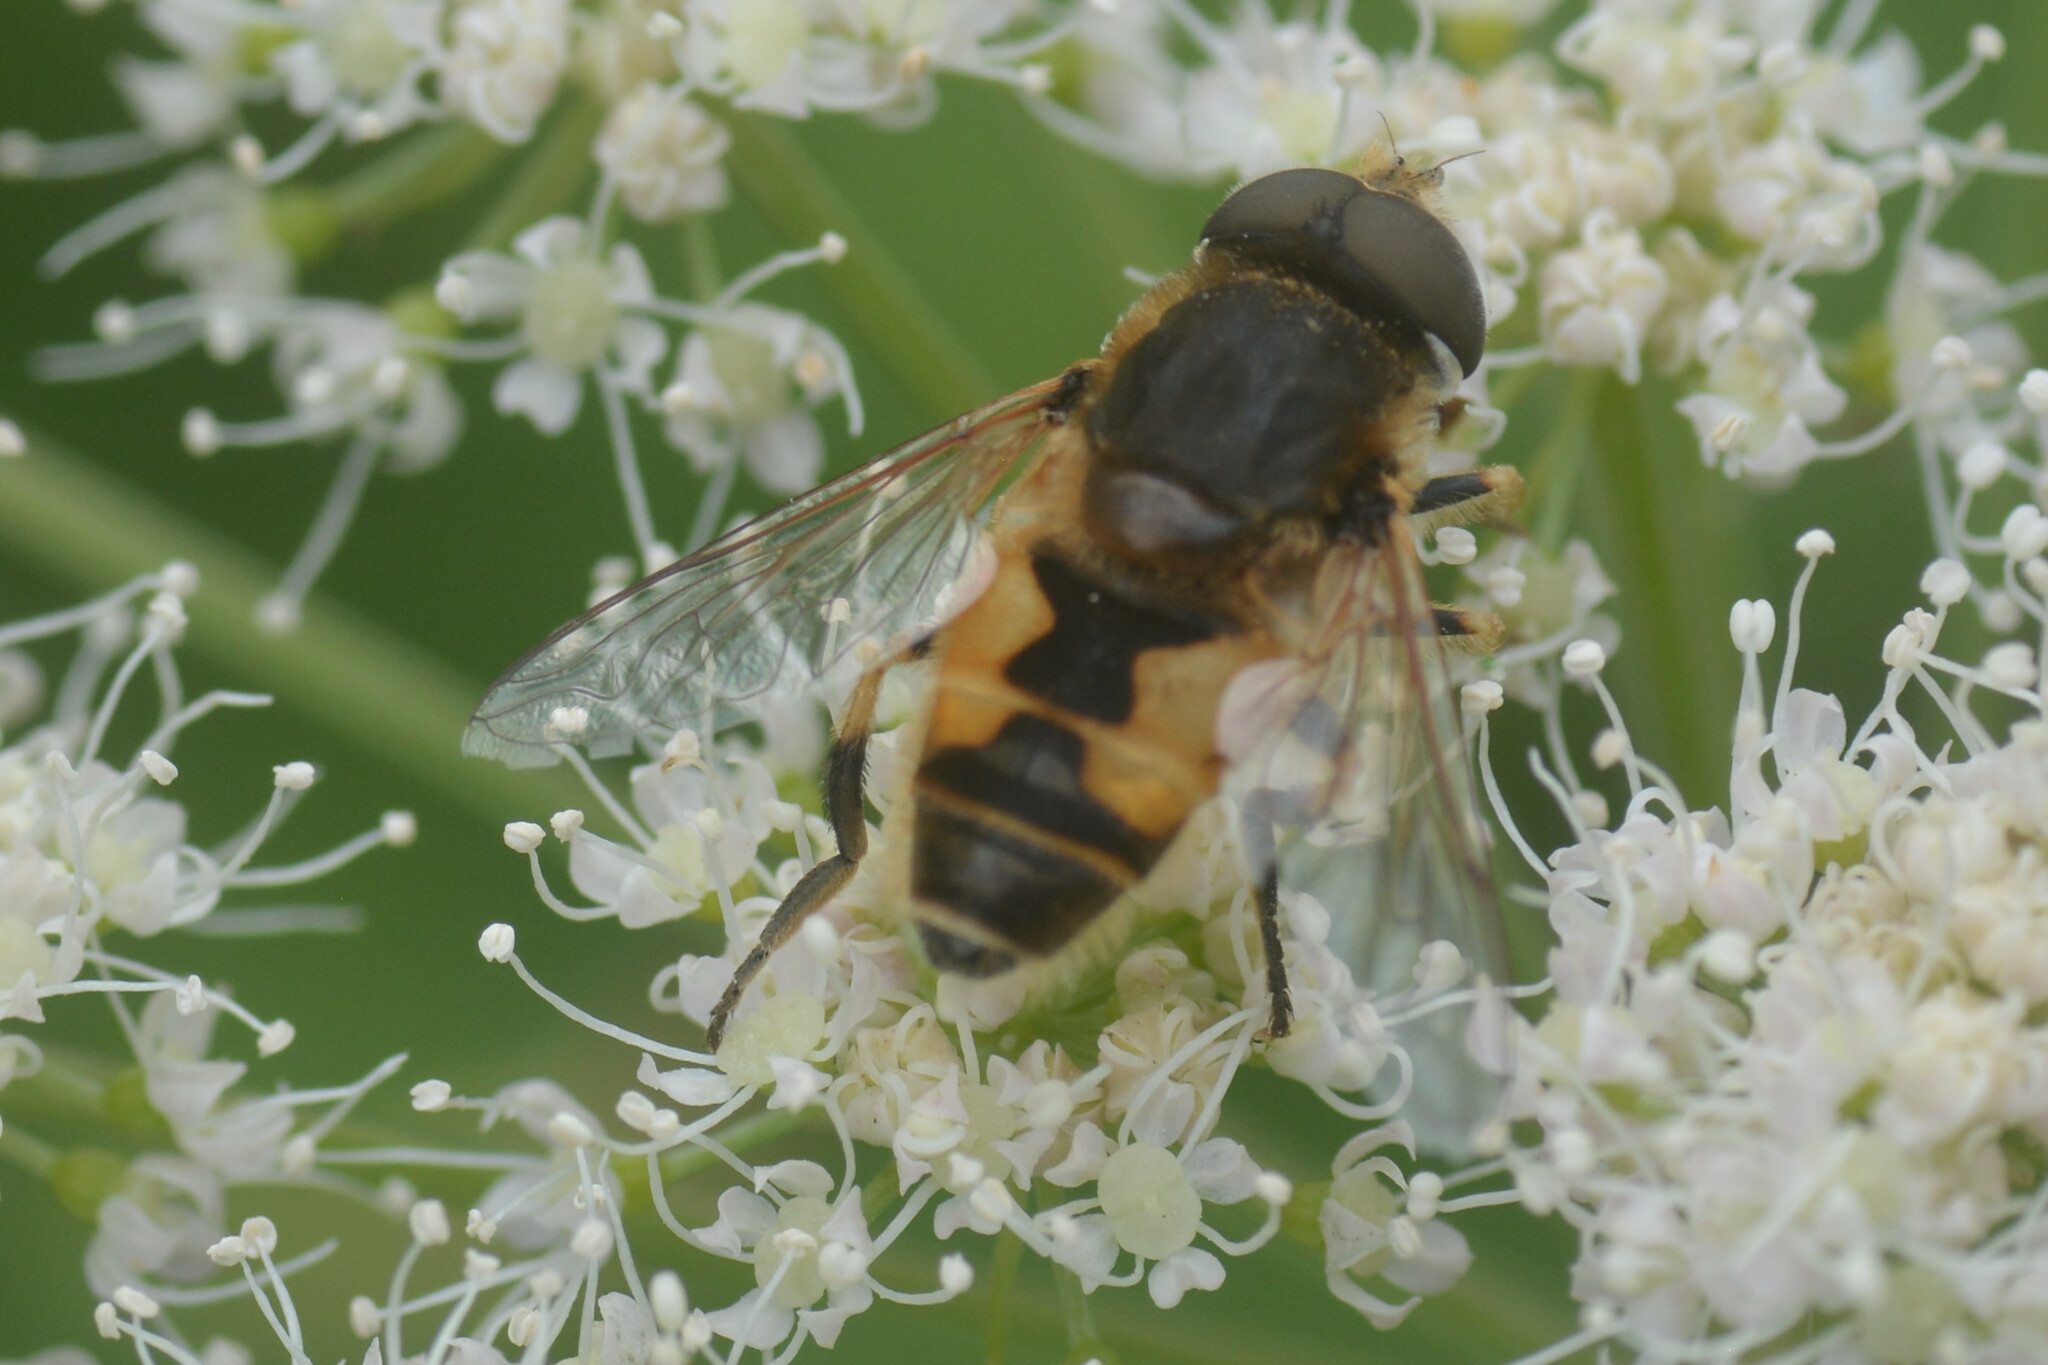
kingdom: Animalia
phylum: Arthropoda
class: Insecta
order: Diptera
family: Syrphidae
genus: Eristalis
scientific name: Eristalis arbustorum
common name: Hover fly
